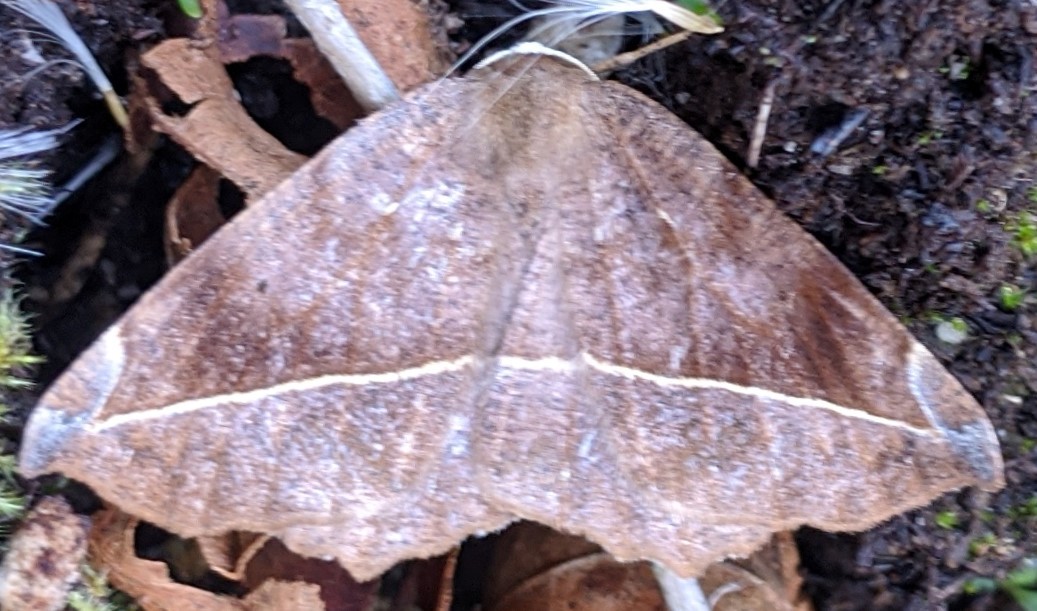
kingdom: Animalia
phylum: Arthropoda
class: Insecta
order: Lepidoptera
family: Geometridae
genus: Eutrapela
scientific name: Eutrapela clemataria
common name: Curved-toothed geometer
